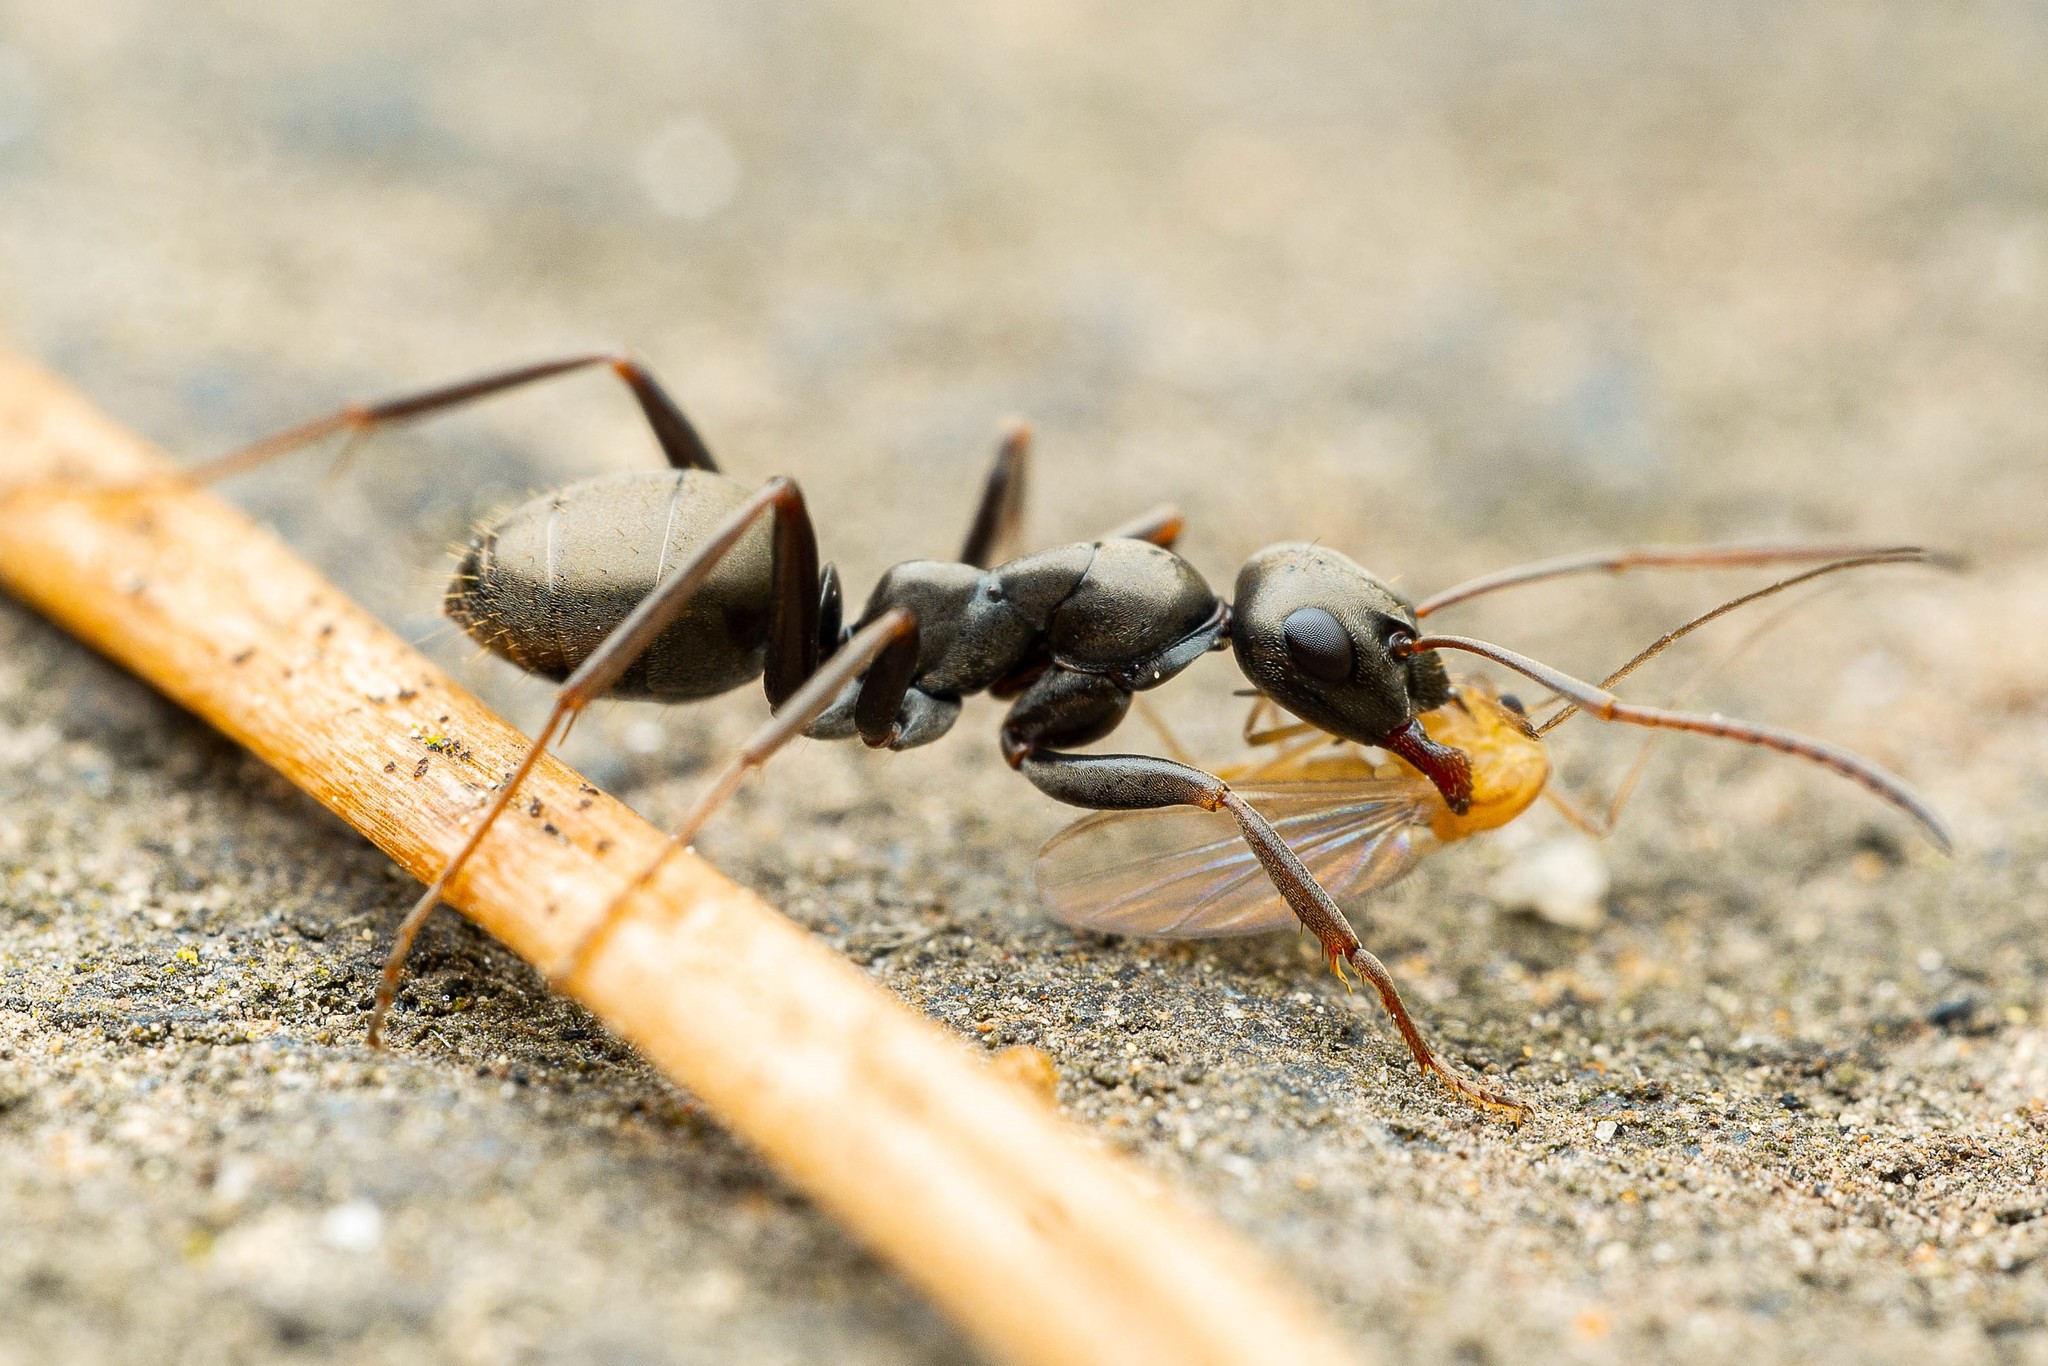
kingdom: Animalia
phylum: Arthropoda
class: Insecta
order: Hymenoptera
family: Formicidae
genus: Formica
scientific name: Formica accreta
